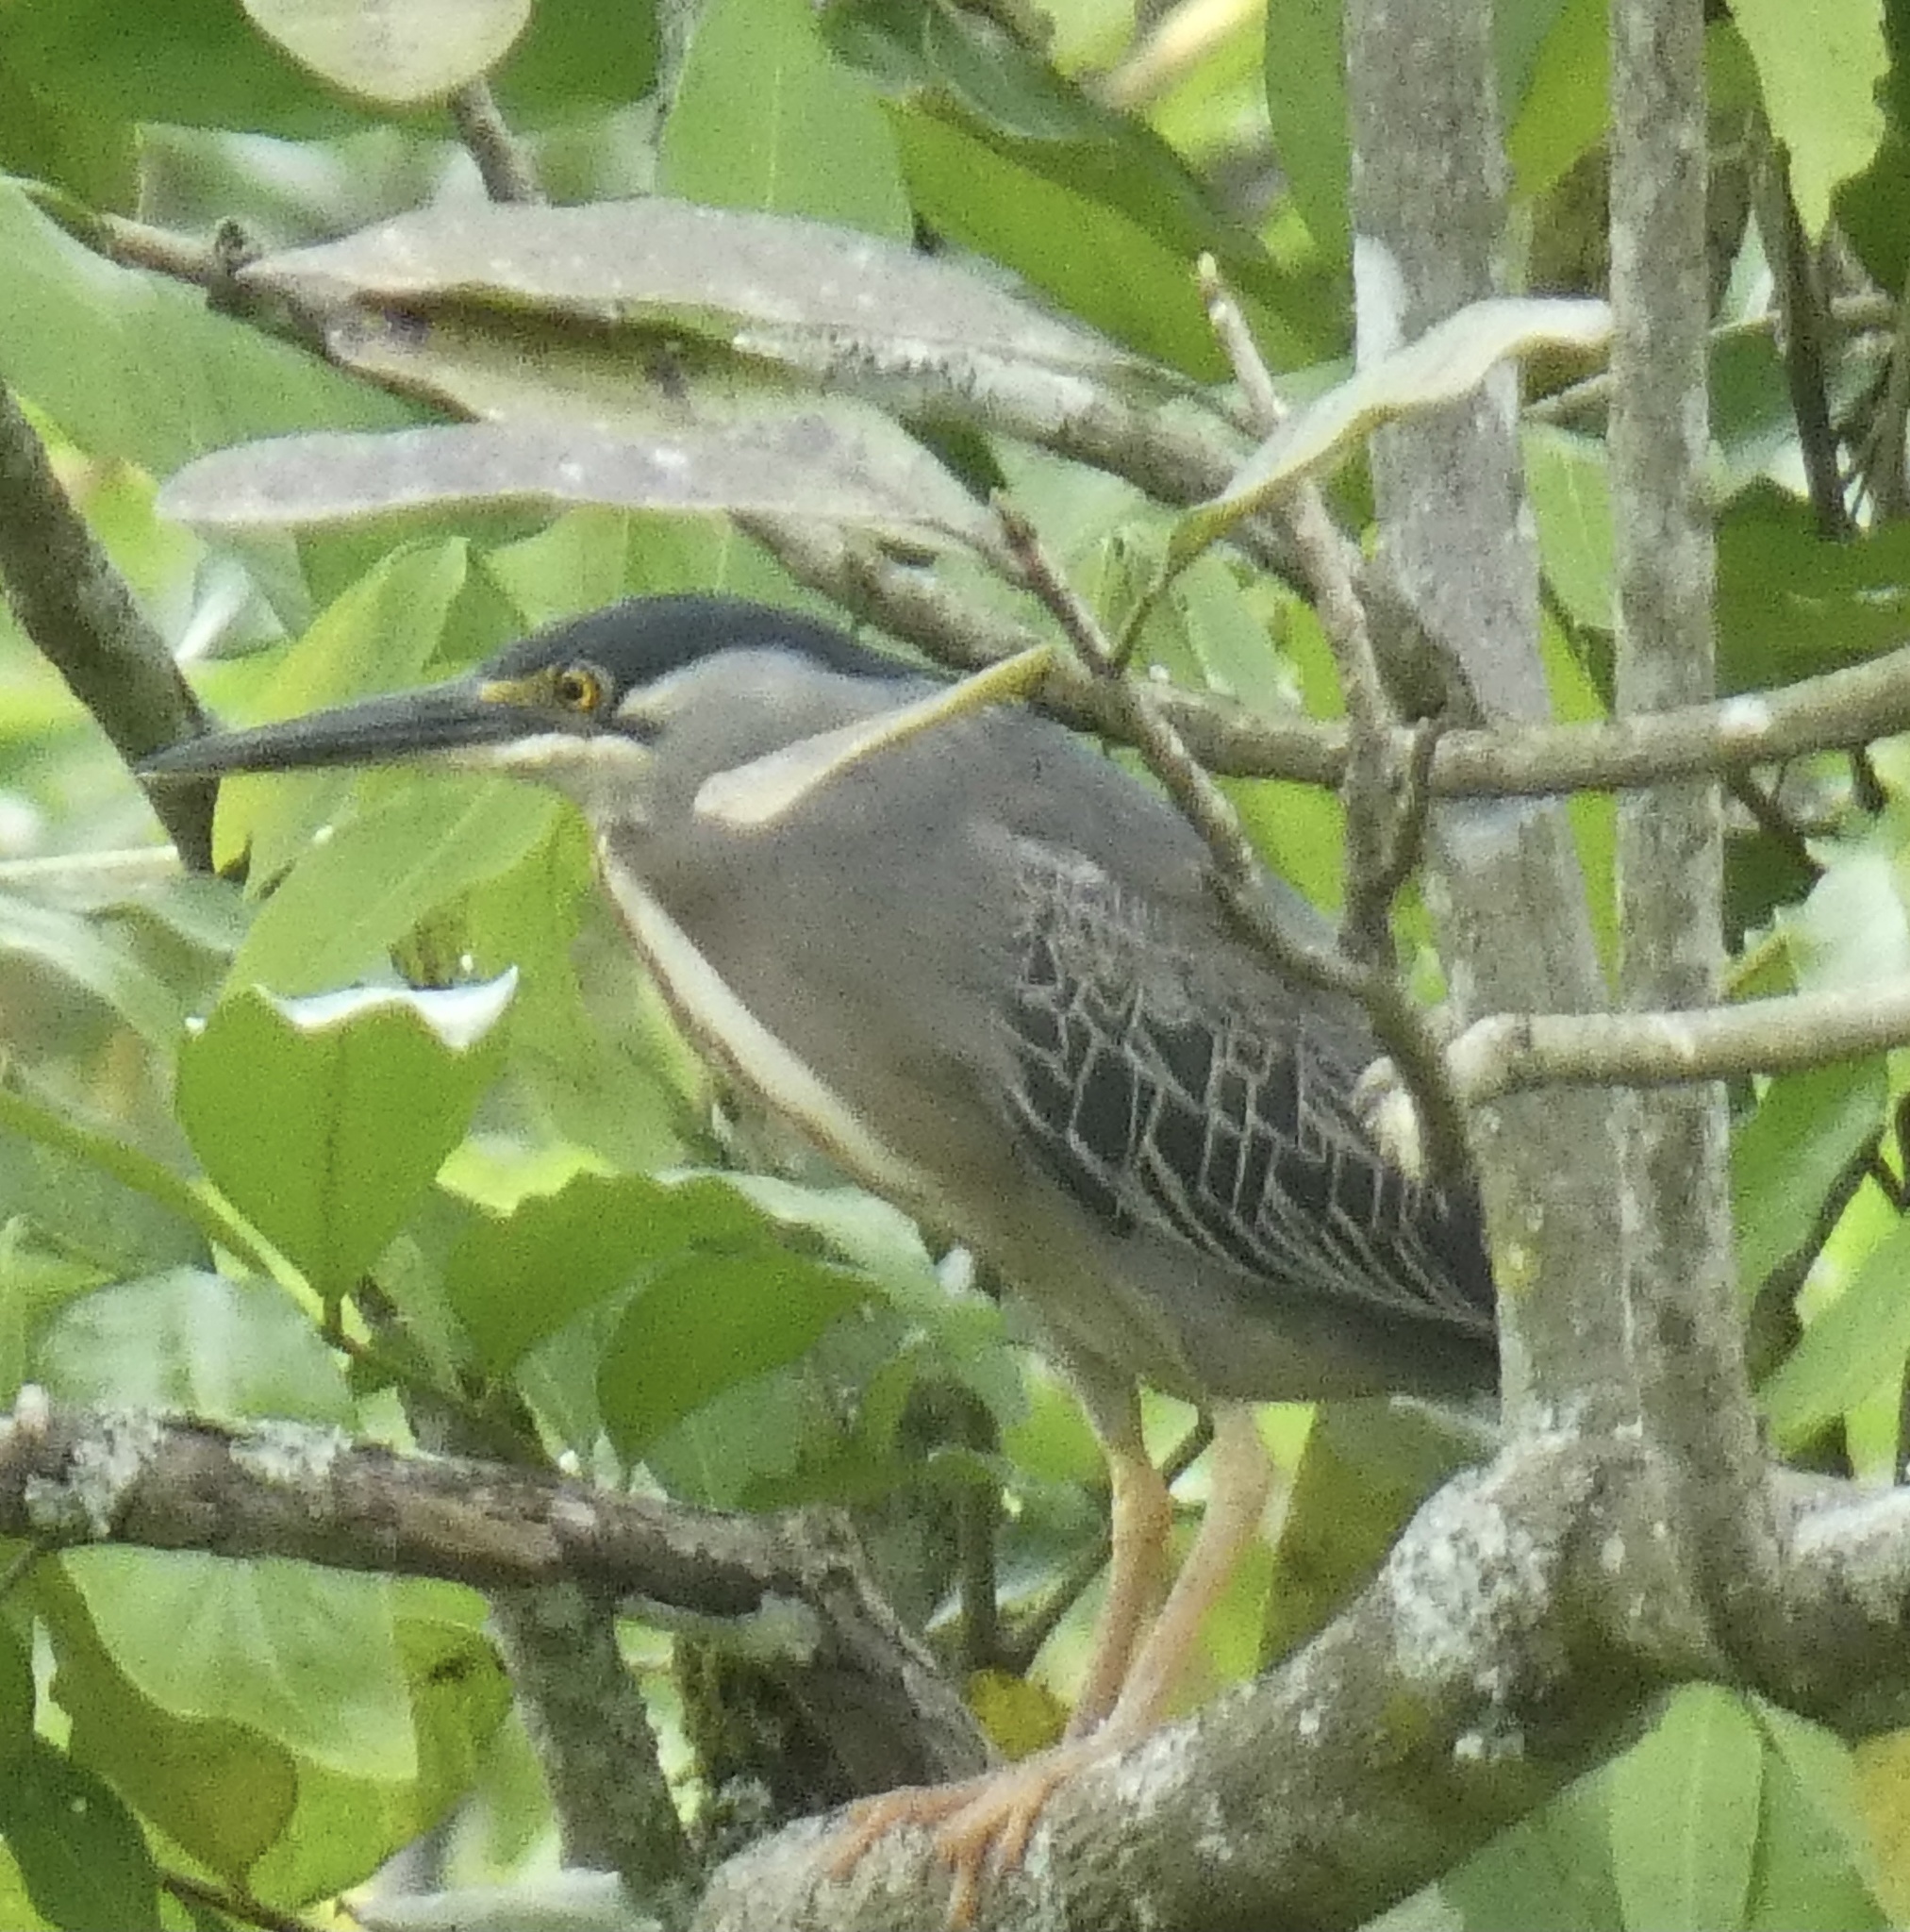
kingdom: Animalia
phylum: Chordata
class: Aves
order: Pelecaniformes
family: Ardeidae
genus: Butorides
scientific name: Butorides striata
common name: Striated heron
